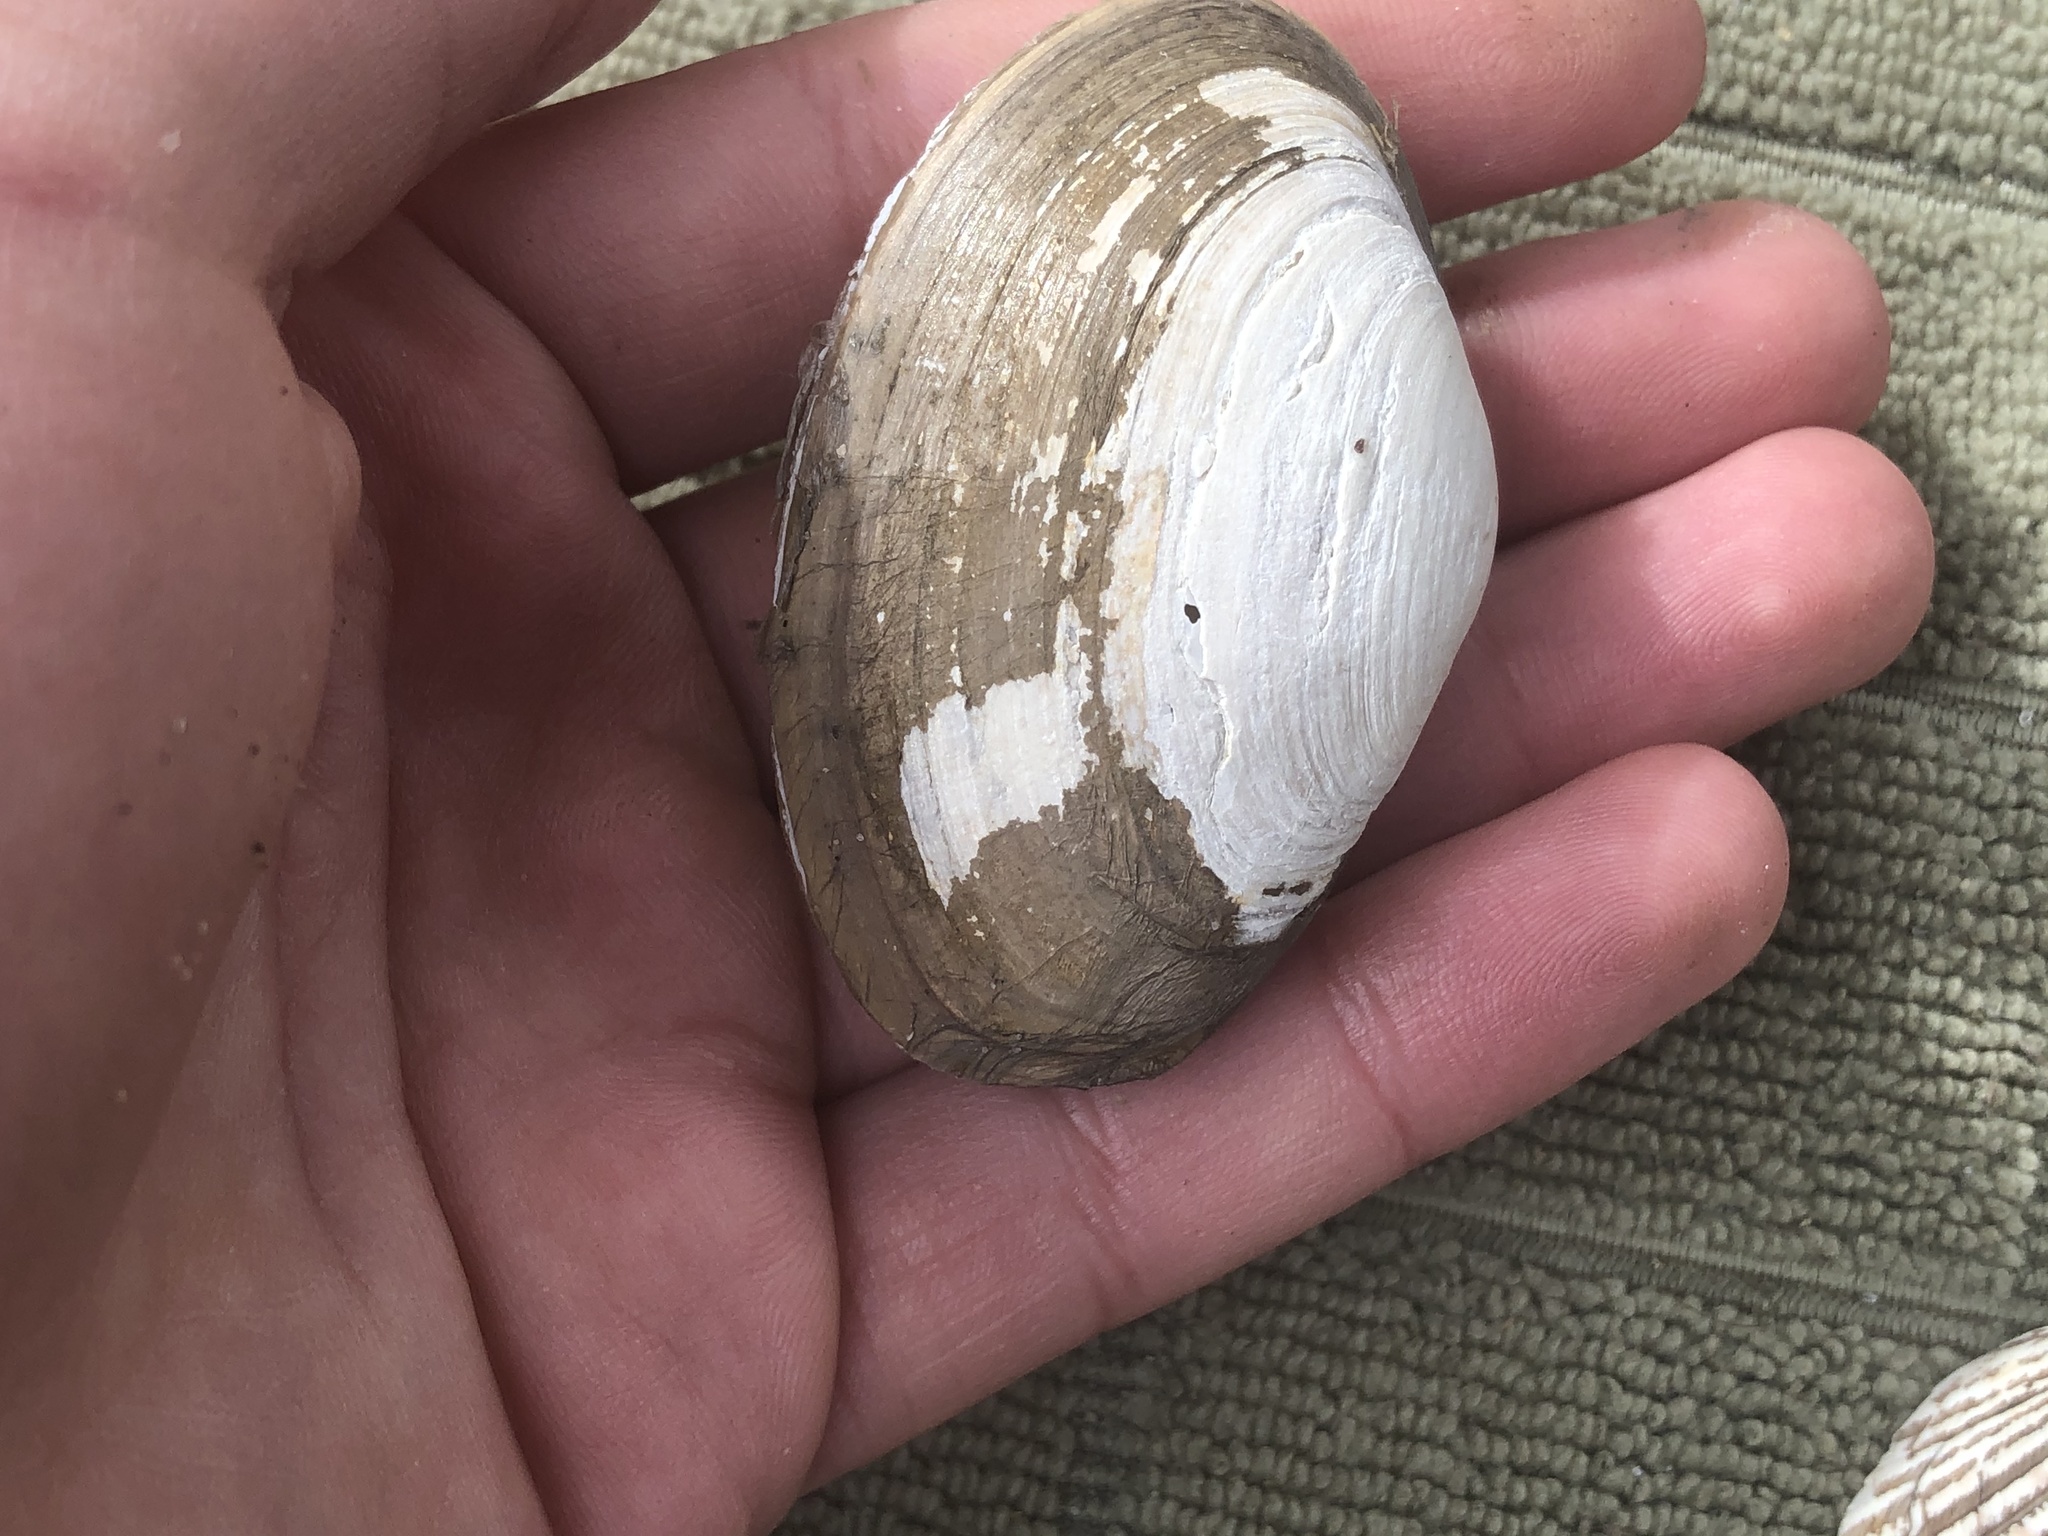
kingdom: Animalia
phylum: Mollusca
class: Bivalvia
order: Venerida
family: Mactridae
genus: Tresus
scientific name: Tresus nuttallii
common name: Pacific gaper clam
